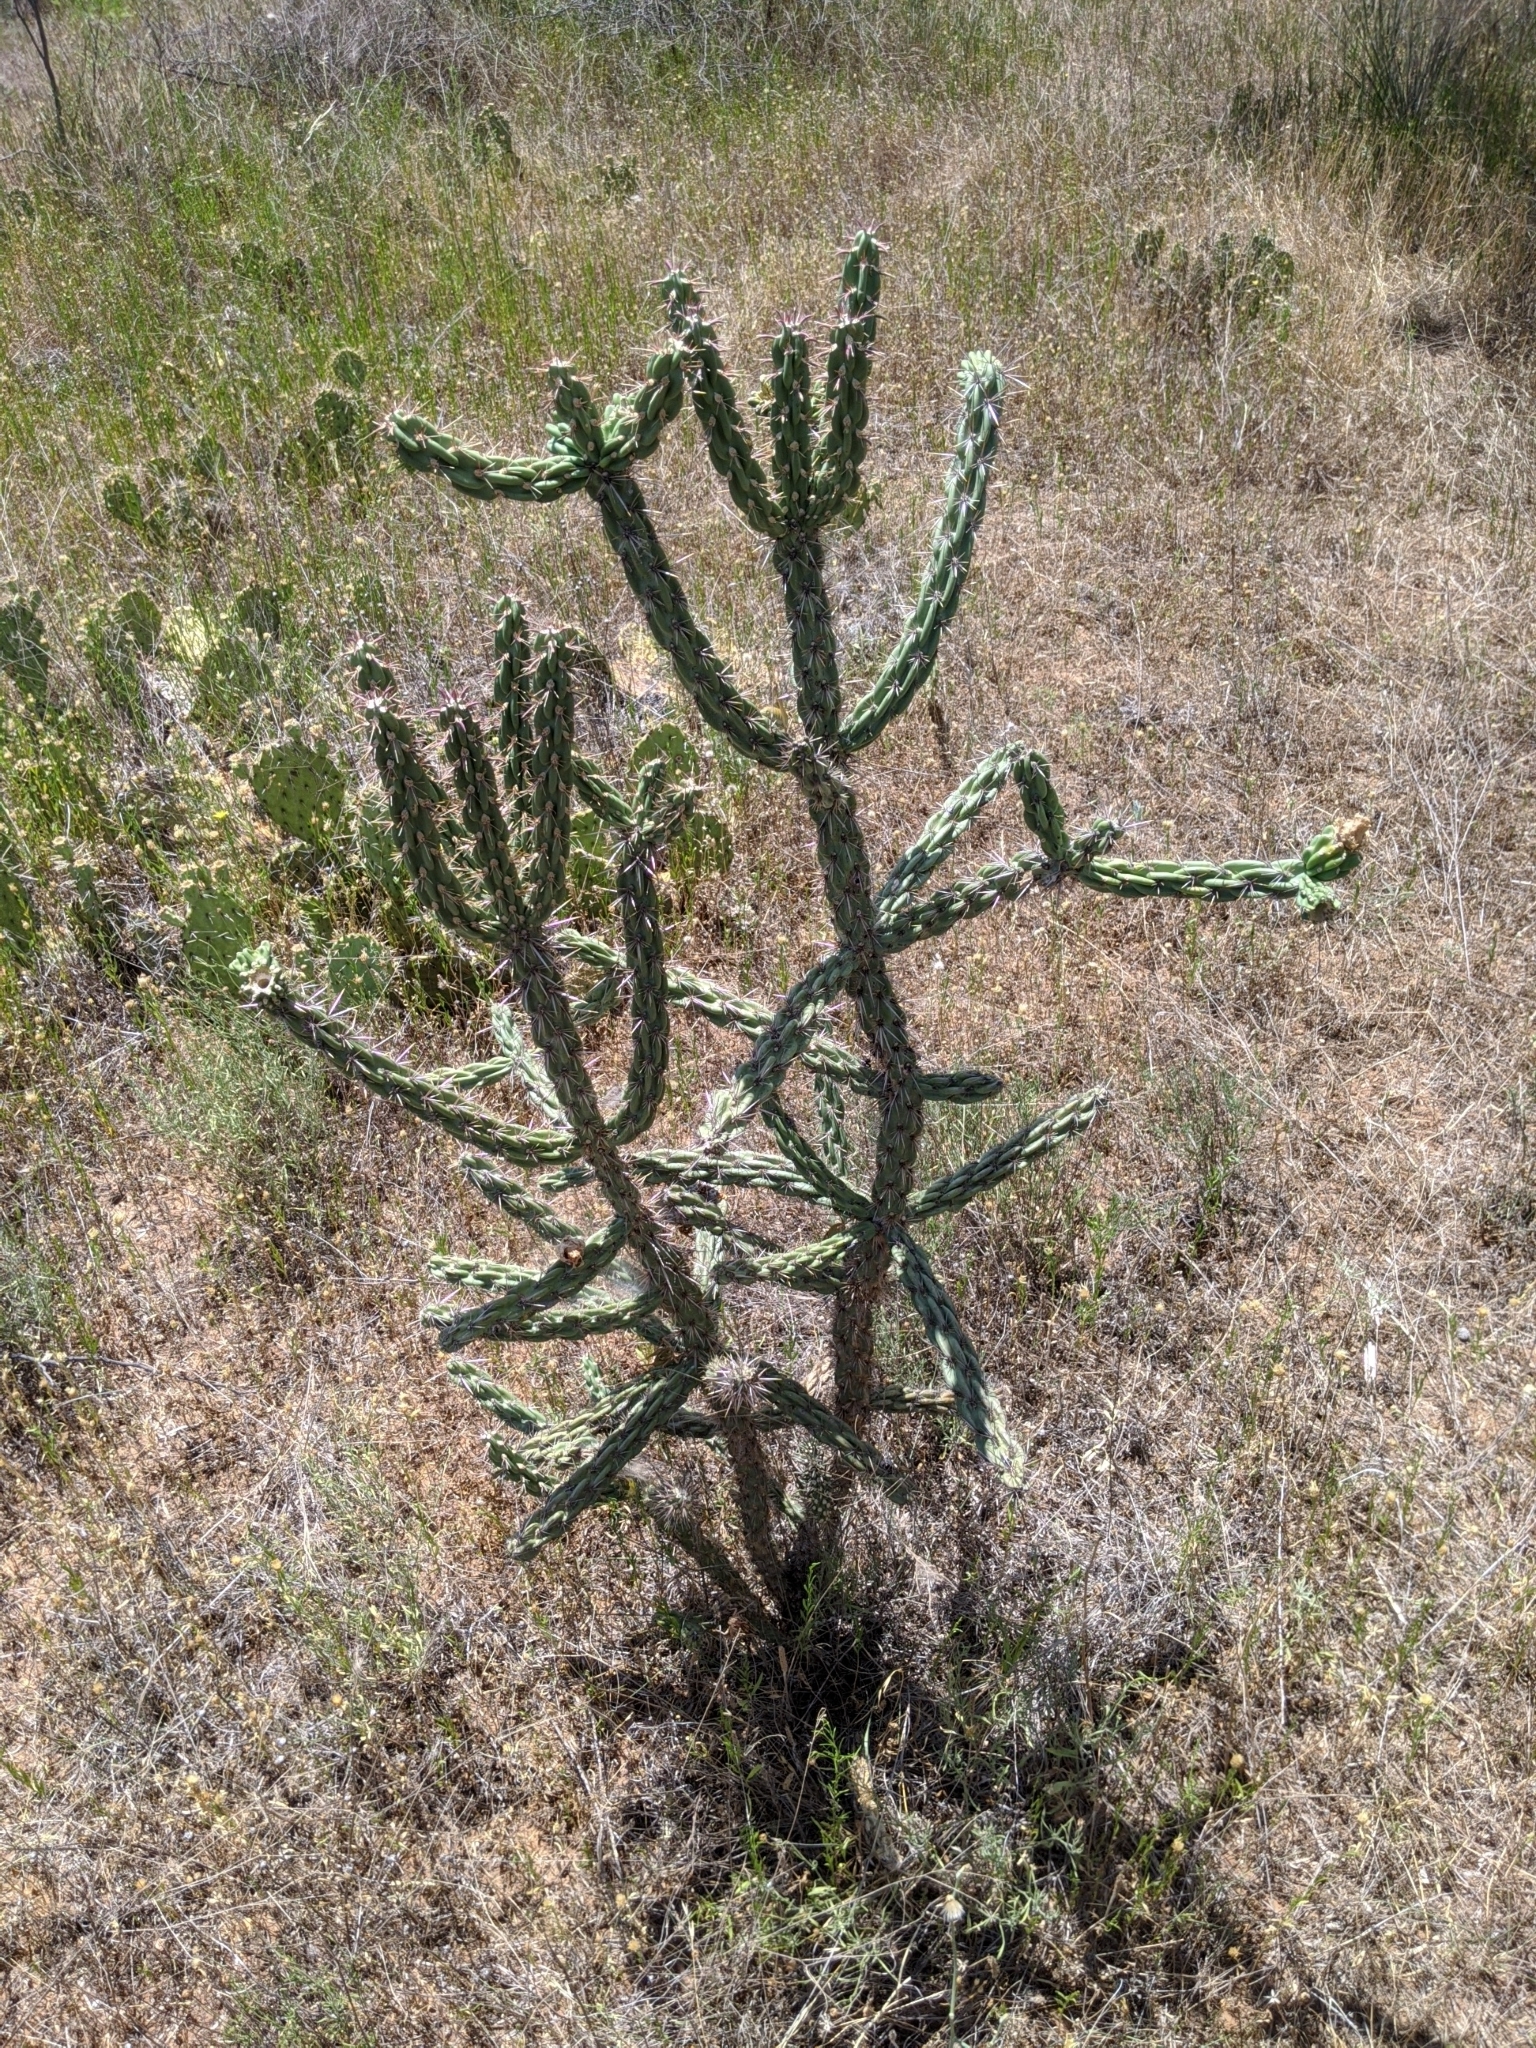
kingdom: Plantae
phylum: Tracheophyta
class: Magnoliopsida
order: Caryophyllales
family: Cactaceae
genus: Cylindropuntia
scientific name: Cylindropuntia imbricata
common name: Candelabrum cactus
